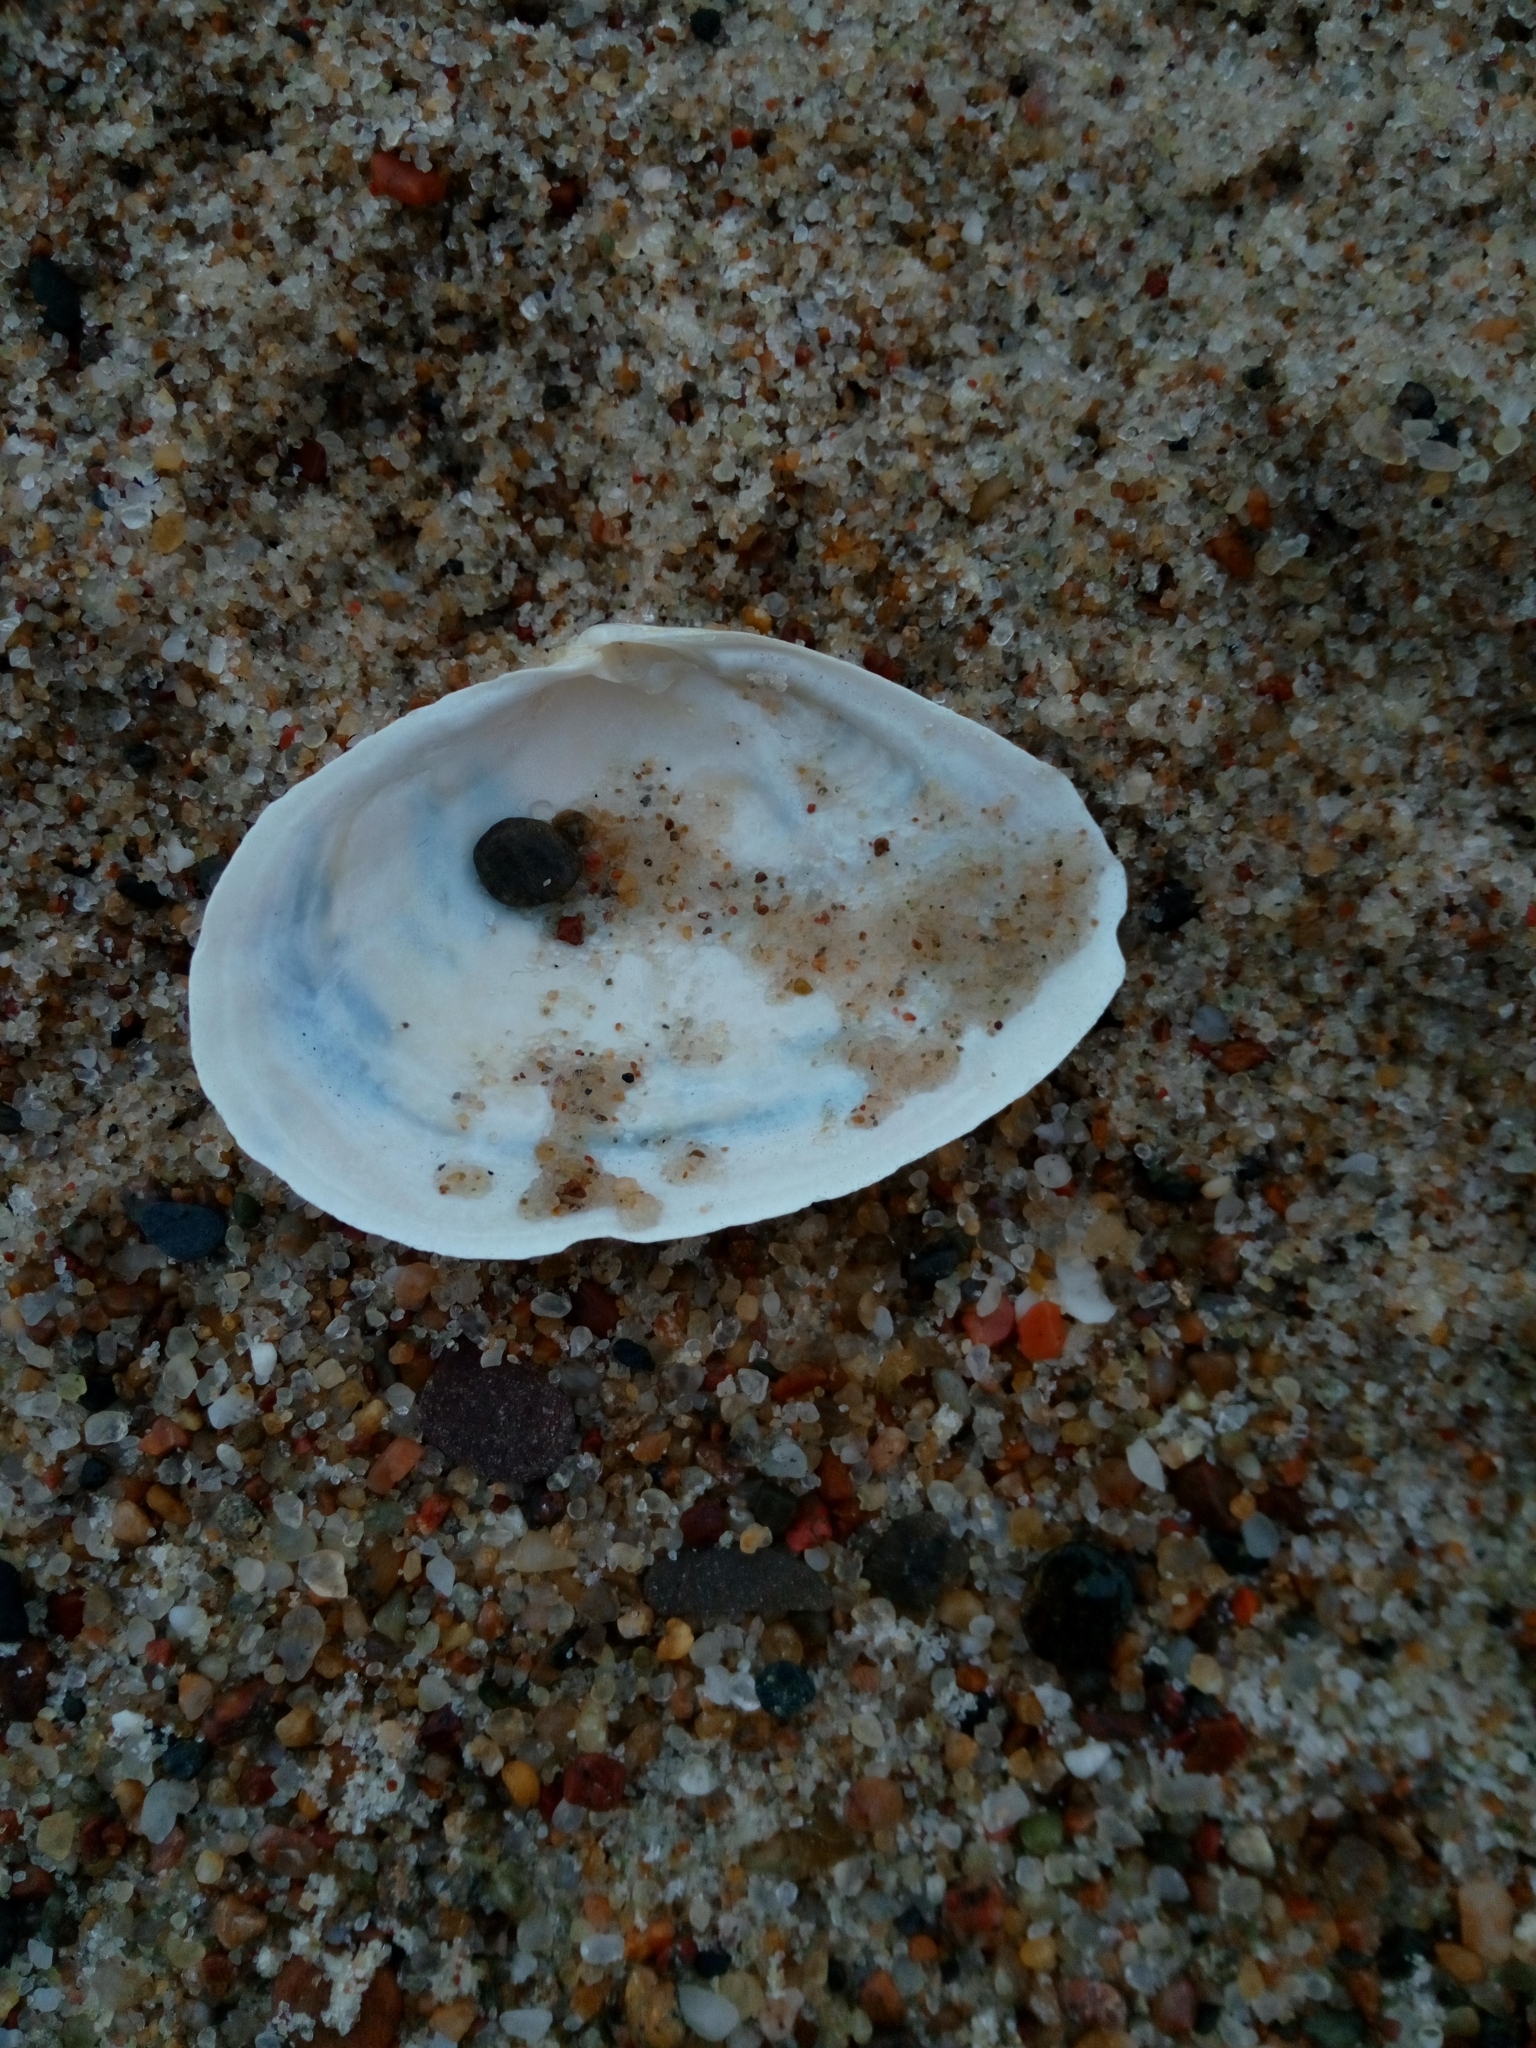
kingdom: Animalia
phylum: Mollusca
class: Bivalvia
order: Myida
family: Myidae
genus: Mya
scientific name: Mya arenaria
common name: Soft-shelled clam
